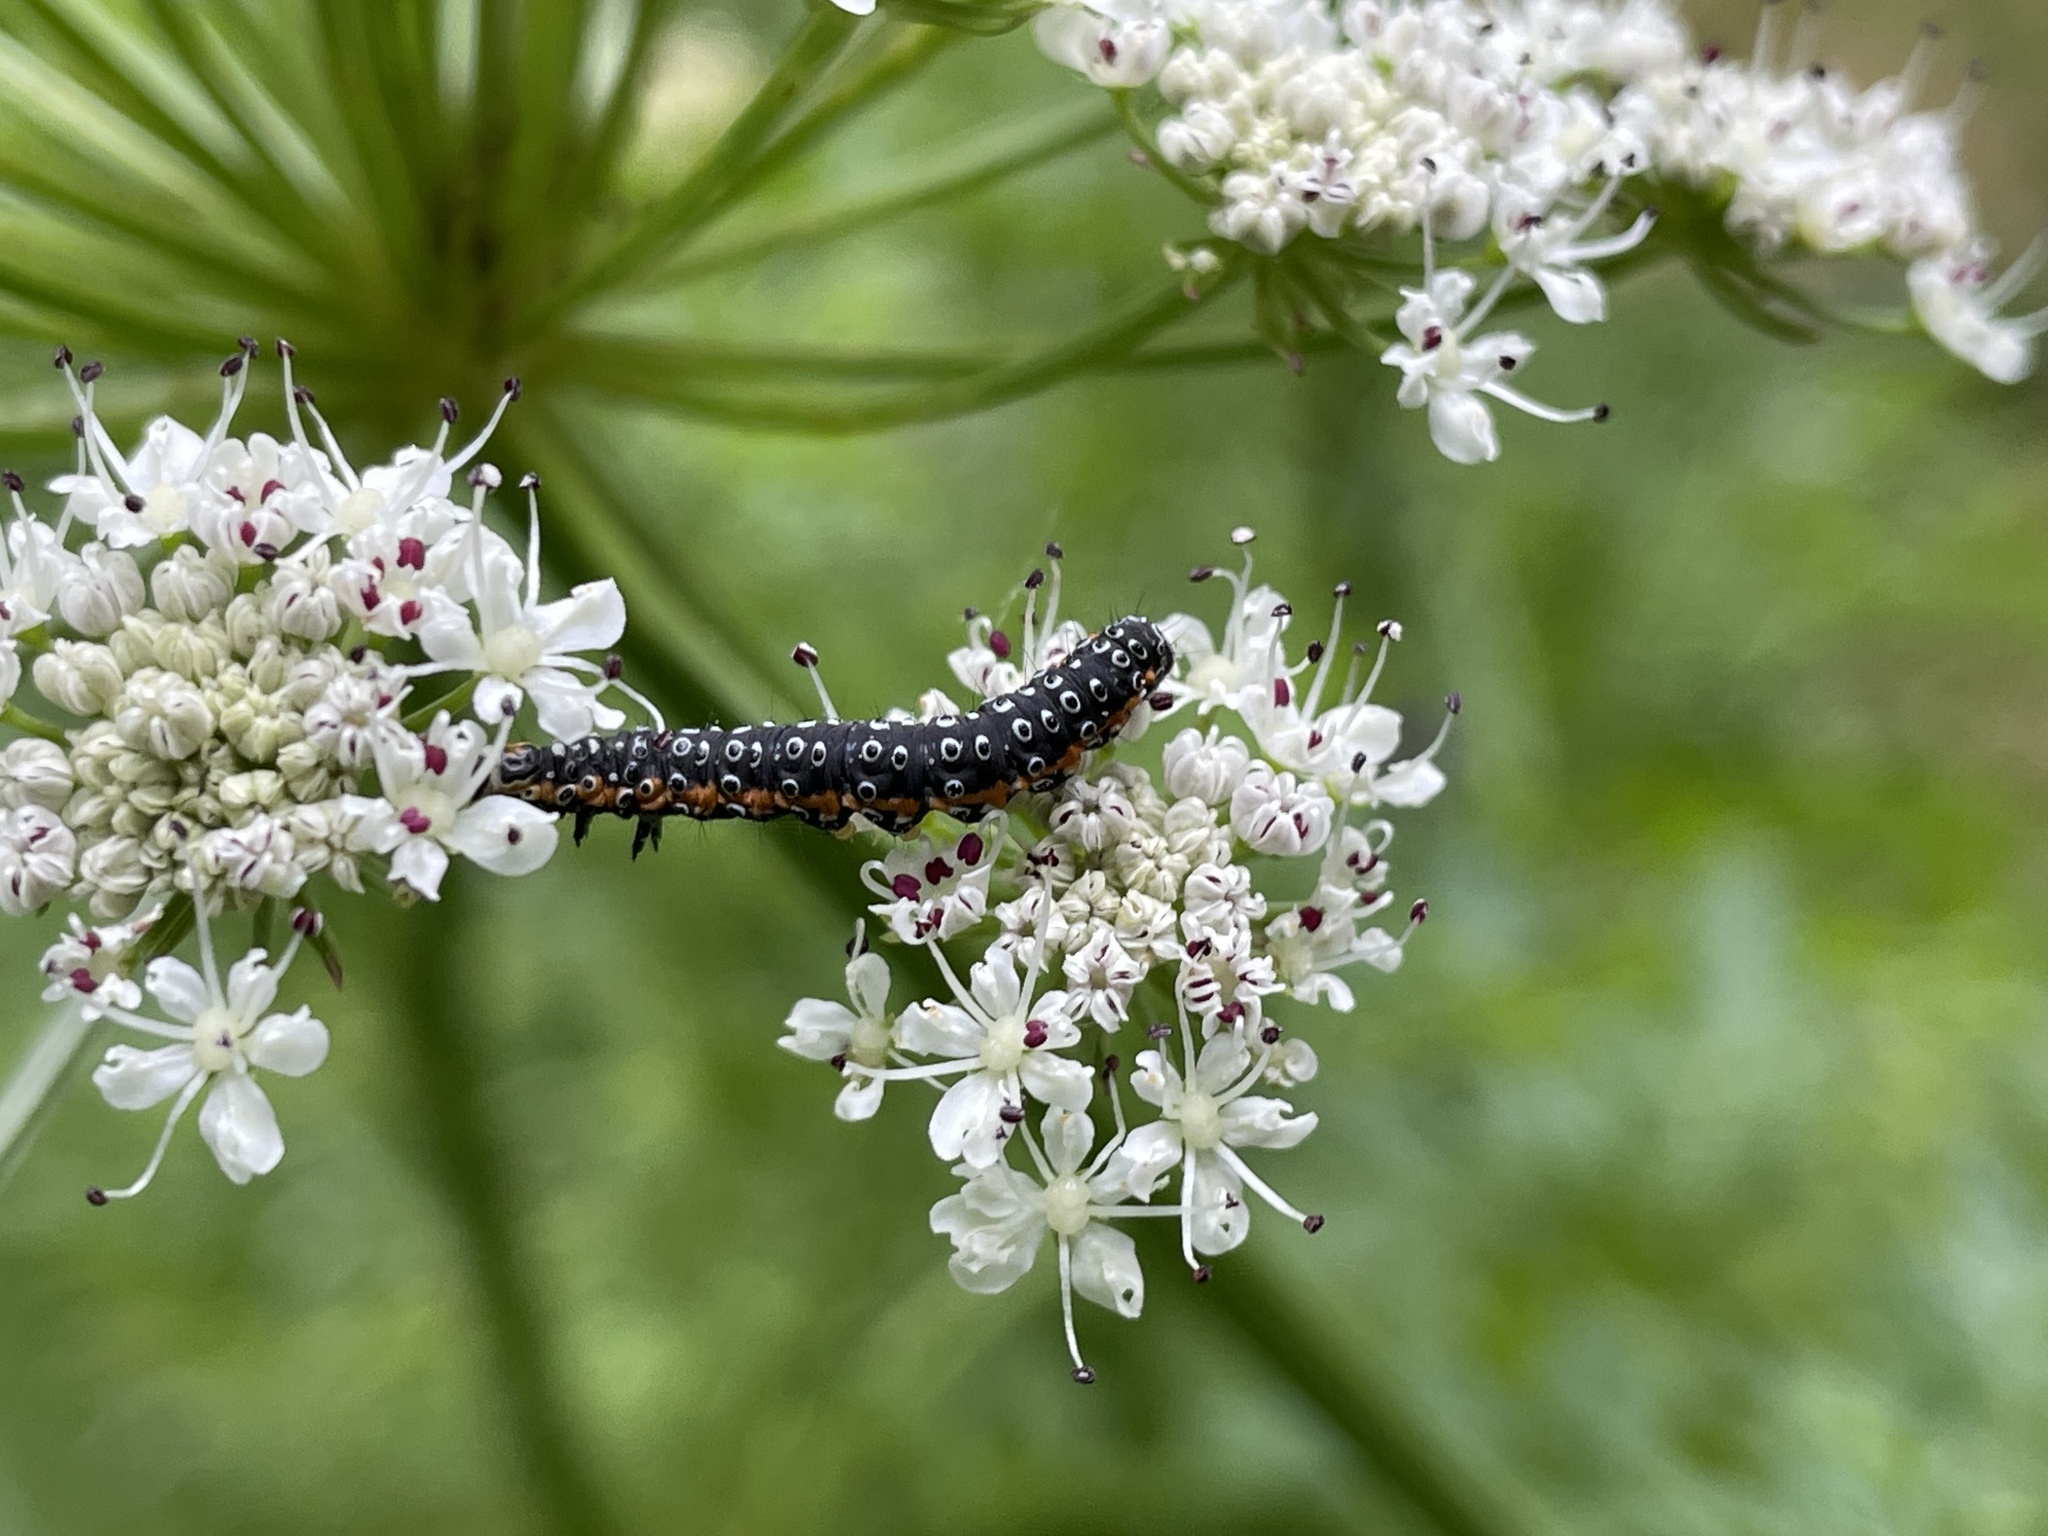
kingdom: Animalia
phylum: Arthropoda
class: Insecta
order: Lepidoptera
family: Depressariidae
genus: Depressaria
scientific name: Depressaria apiella
